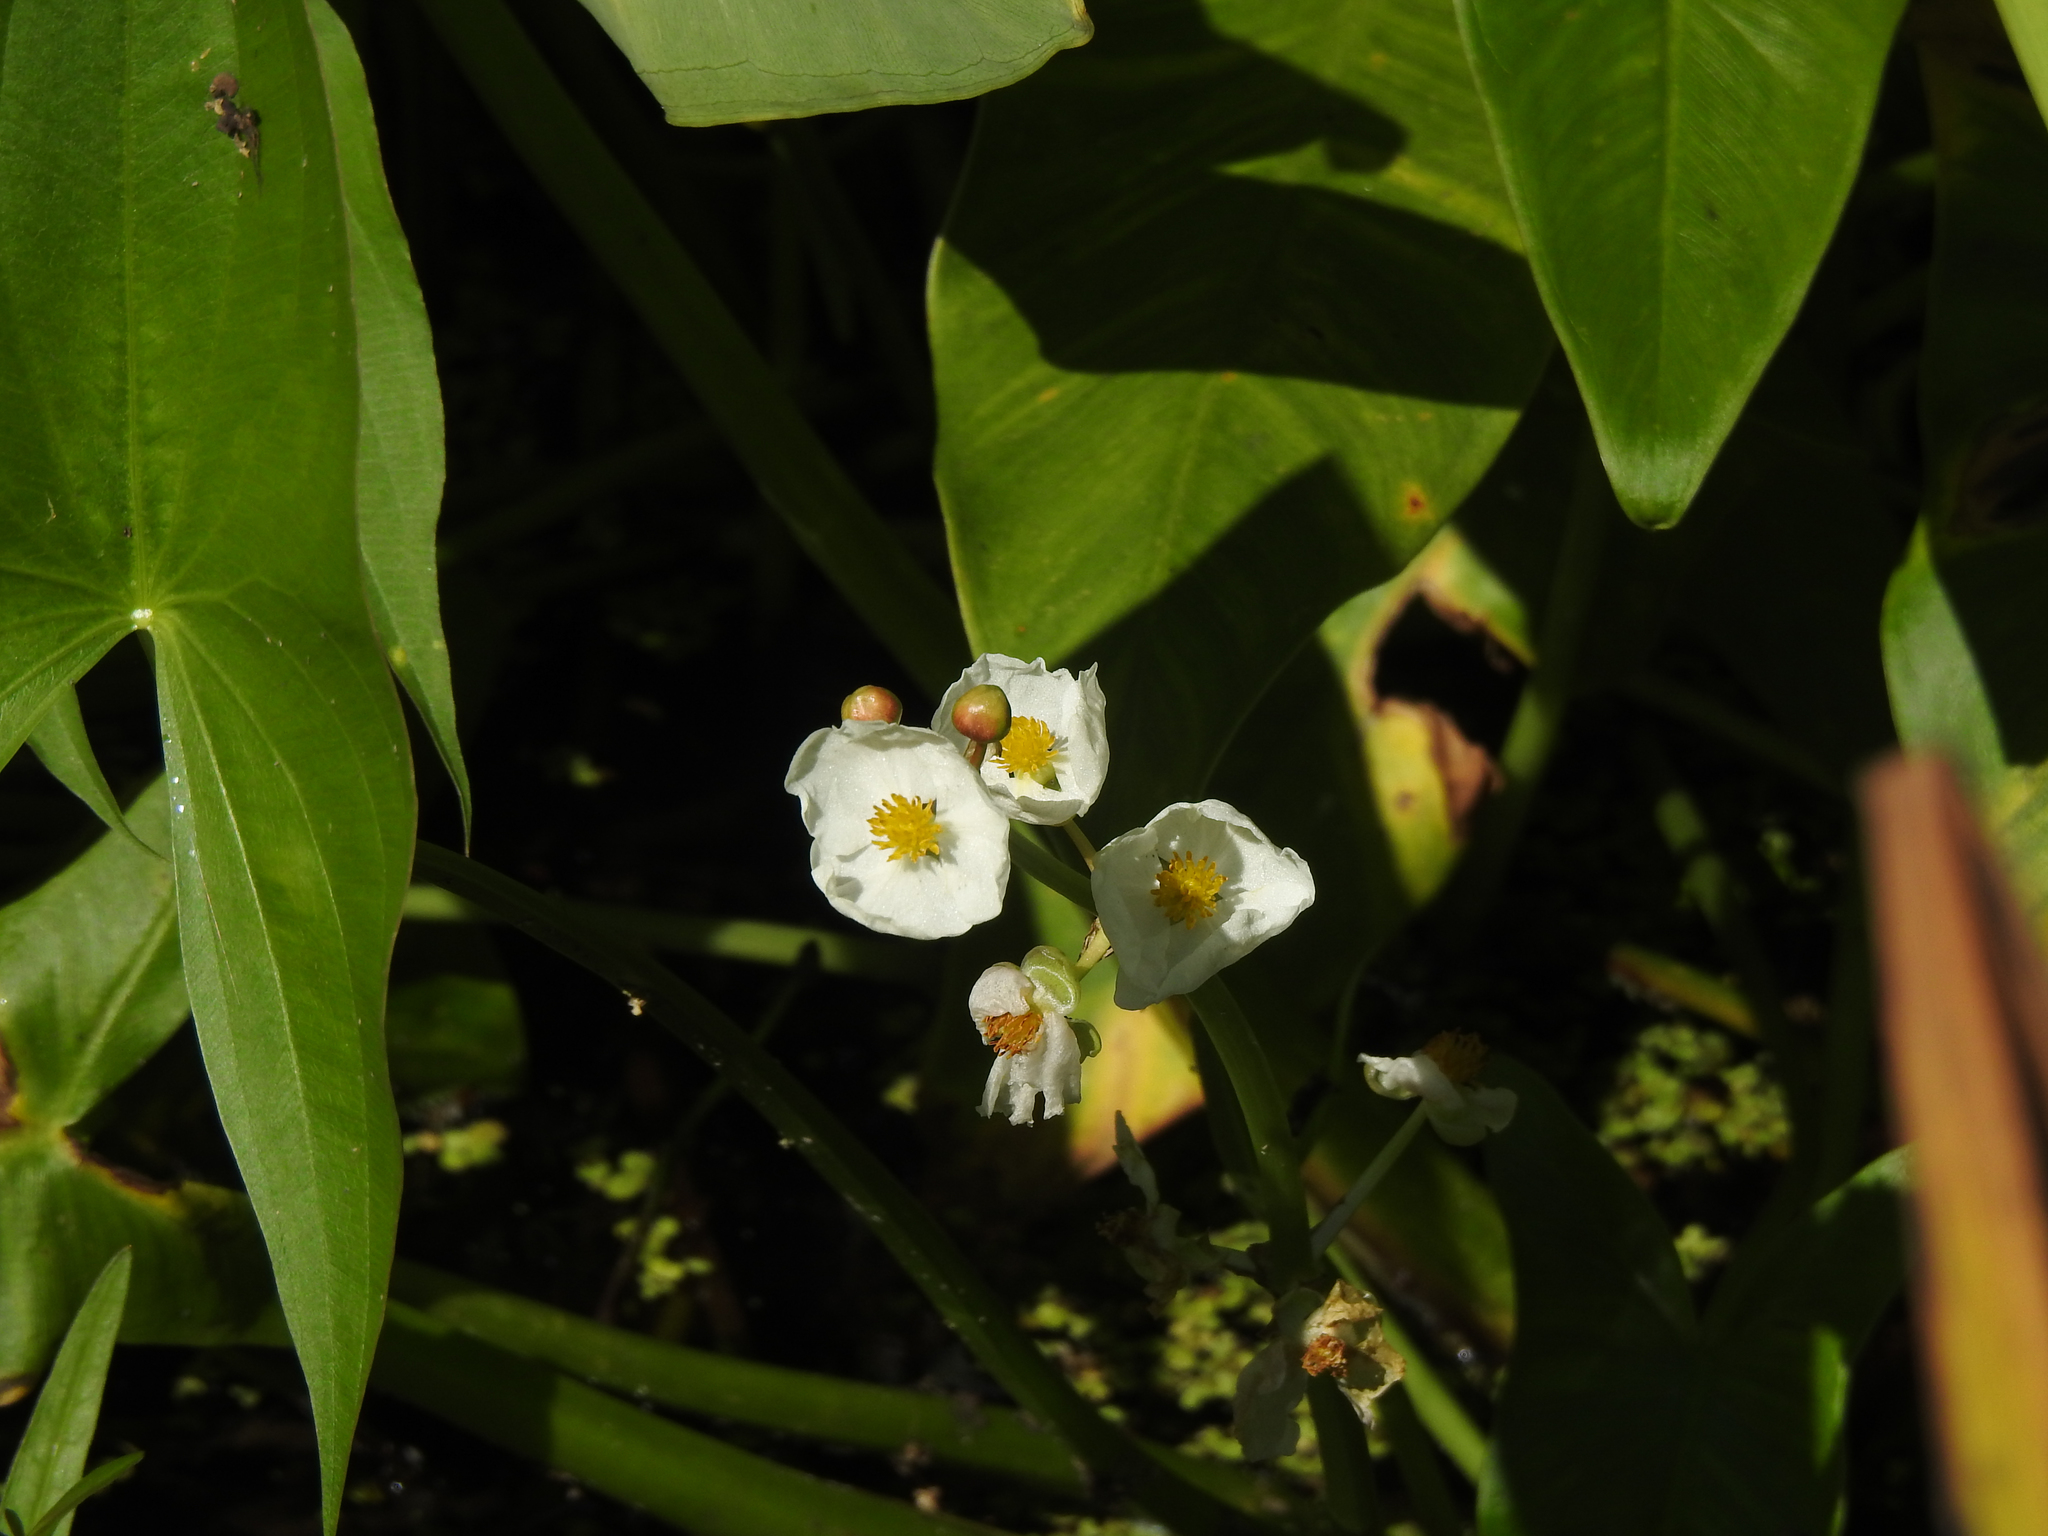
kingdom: Plantae
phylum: Tracheophyta
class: Liliopsida
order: Alismatales
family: Alismataceae
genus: Sagittaria
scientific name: Sagittaria latifolia
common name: Duck-potato
